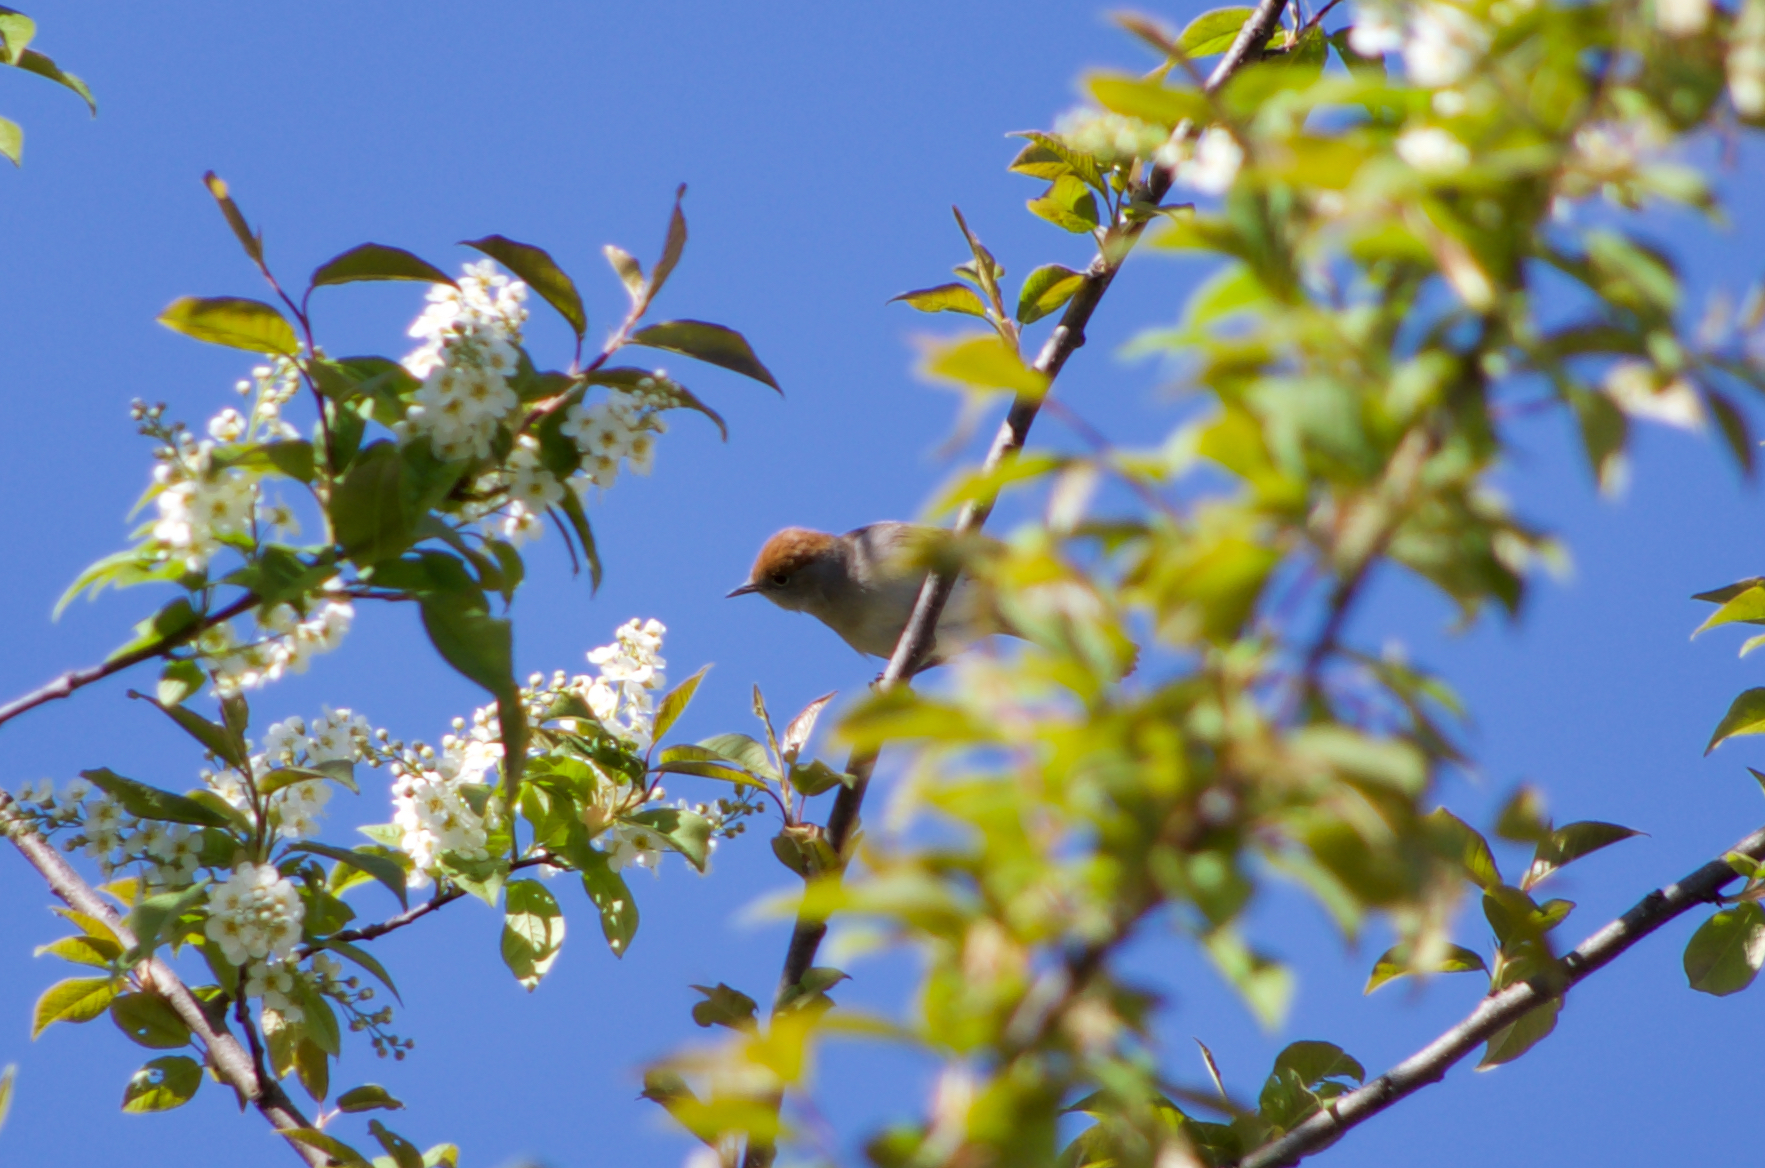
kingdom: Animalia
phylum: Chordata
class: Aves
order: Passeriformes
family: Sylviidae
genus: Sylvia
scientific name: Sylvia atricapilla
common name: Eurasian blackcap
